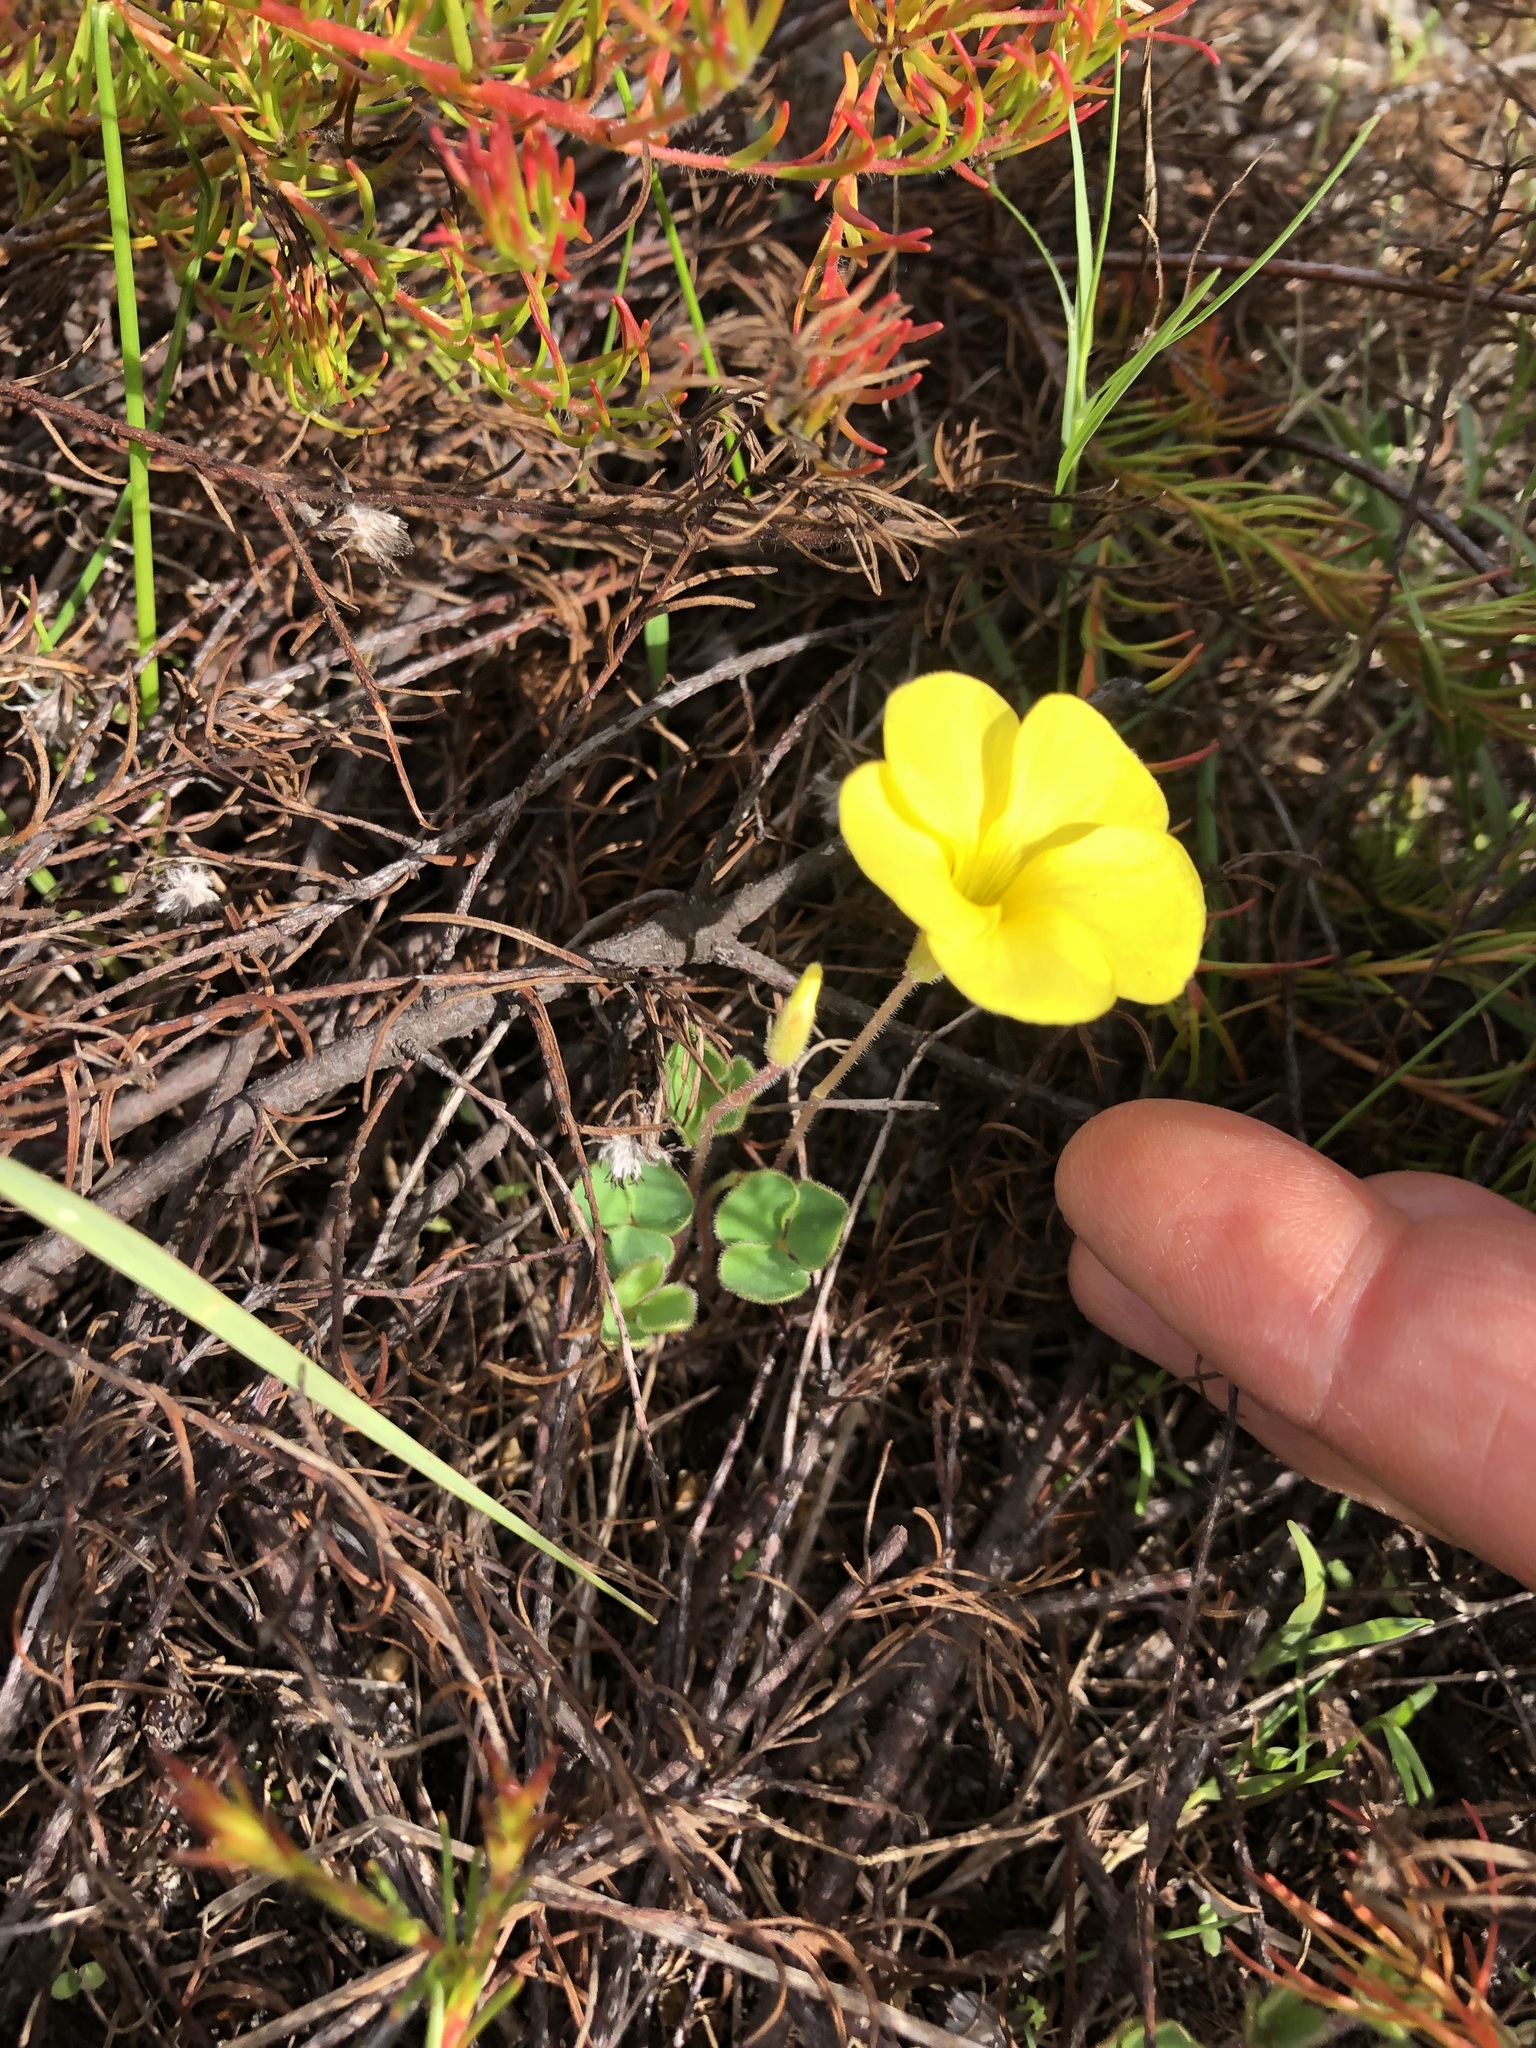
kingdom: Plantae
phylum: Tracheophyta
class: Magnoliopsida
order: Oxalidales
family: Oxalidaceae
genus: Oxalis
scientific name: Oxalis luteola
